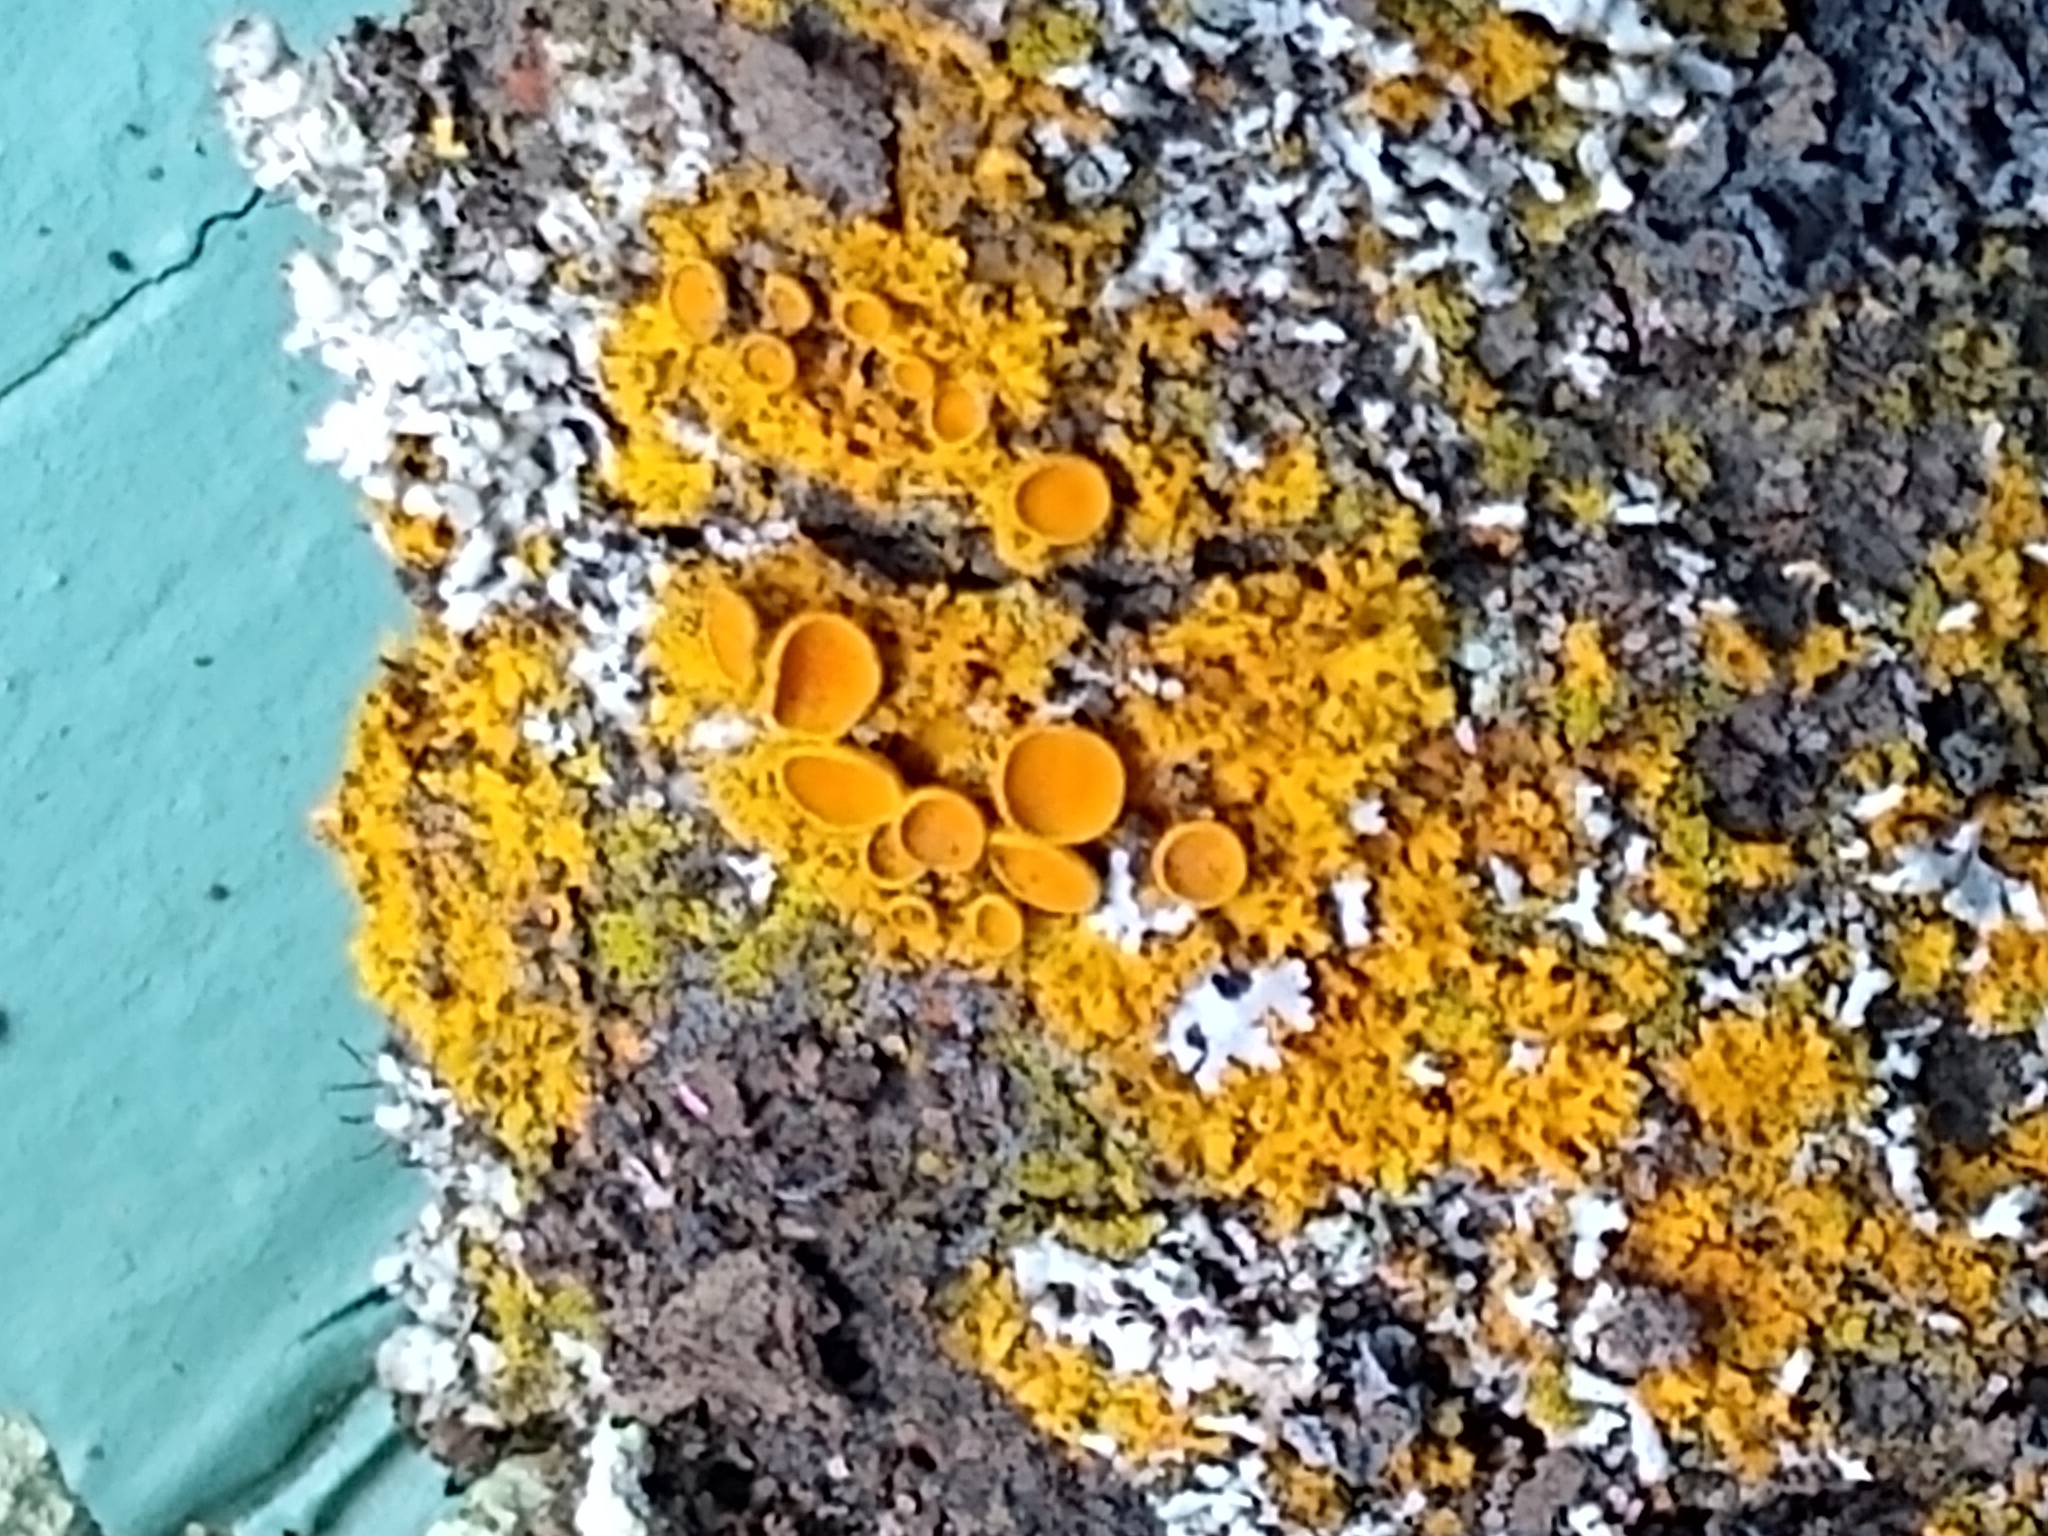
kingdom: Fungi
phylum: Ascomycota
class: Lecanoromycetes
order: Teloschistales
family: Teloschistaceae
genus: Oxneria
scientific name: Oxneria fallax
